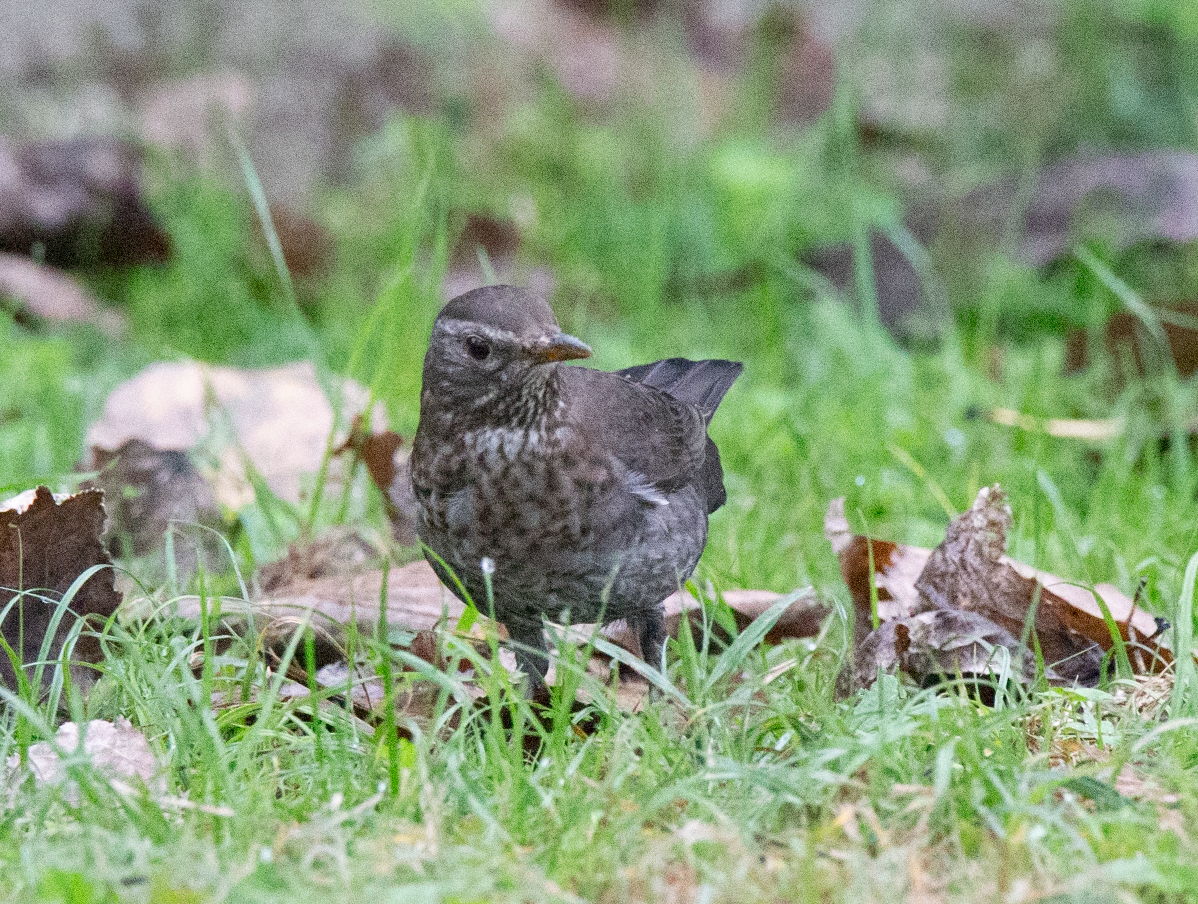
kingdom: Animalia
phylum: Chordata
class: Aves
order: Passeriformes
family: Turdidae
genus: Turdus
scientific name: Turdus merula
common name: Common blackbird
